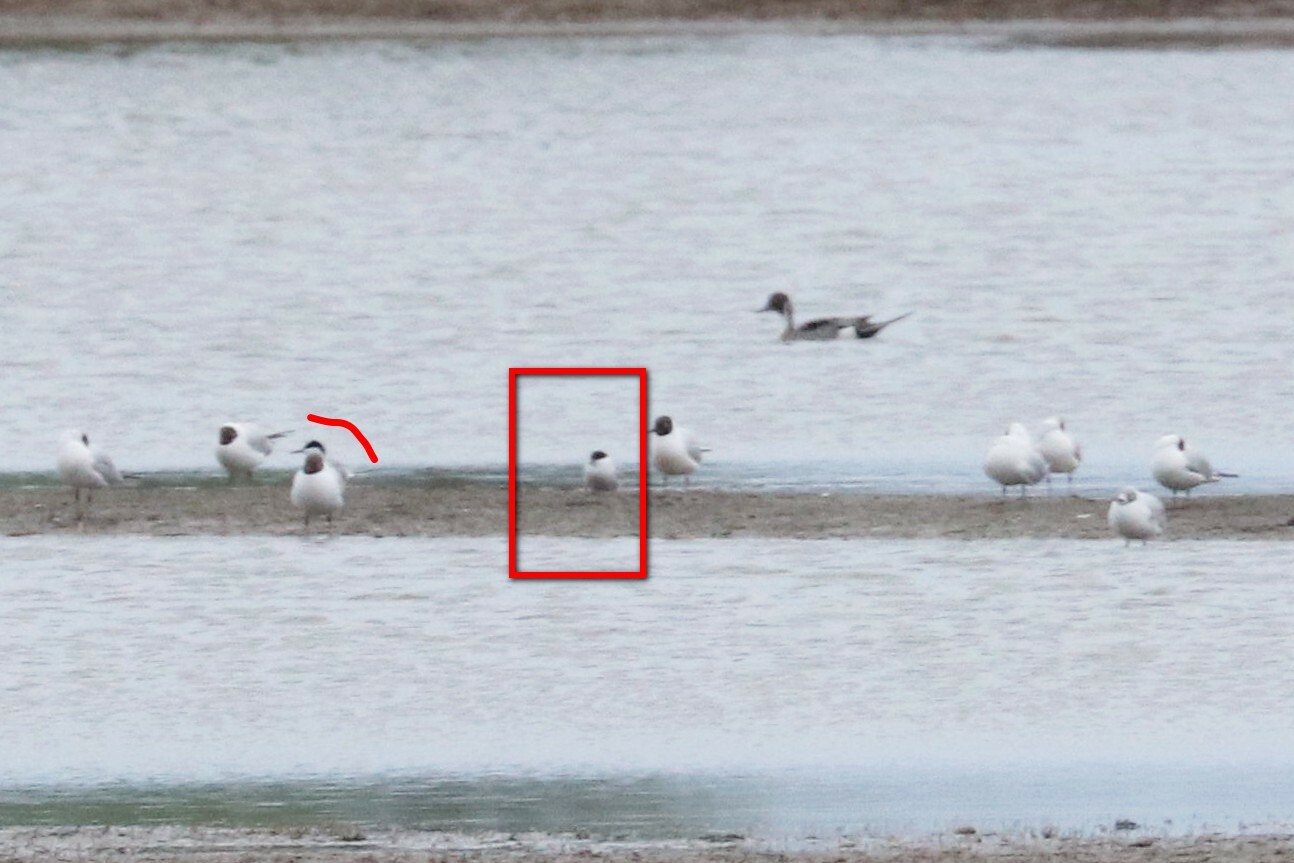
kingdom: Animalia
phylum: Chordata
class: Aves
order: Charadriiformes
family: Laridae
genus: Sterna
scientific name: Sterna hirundo
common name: Common tern
